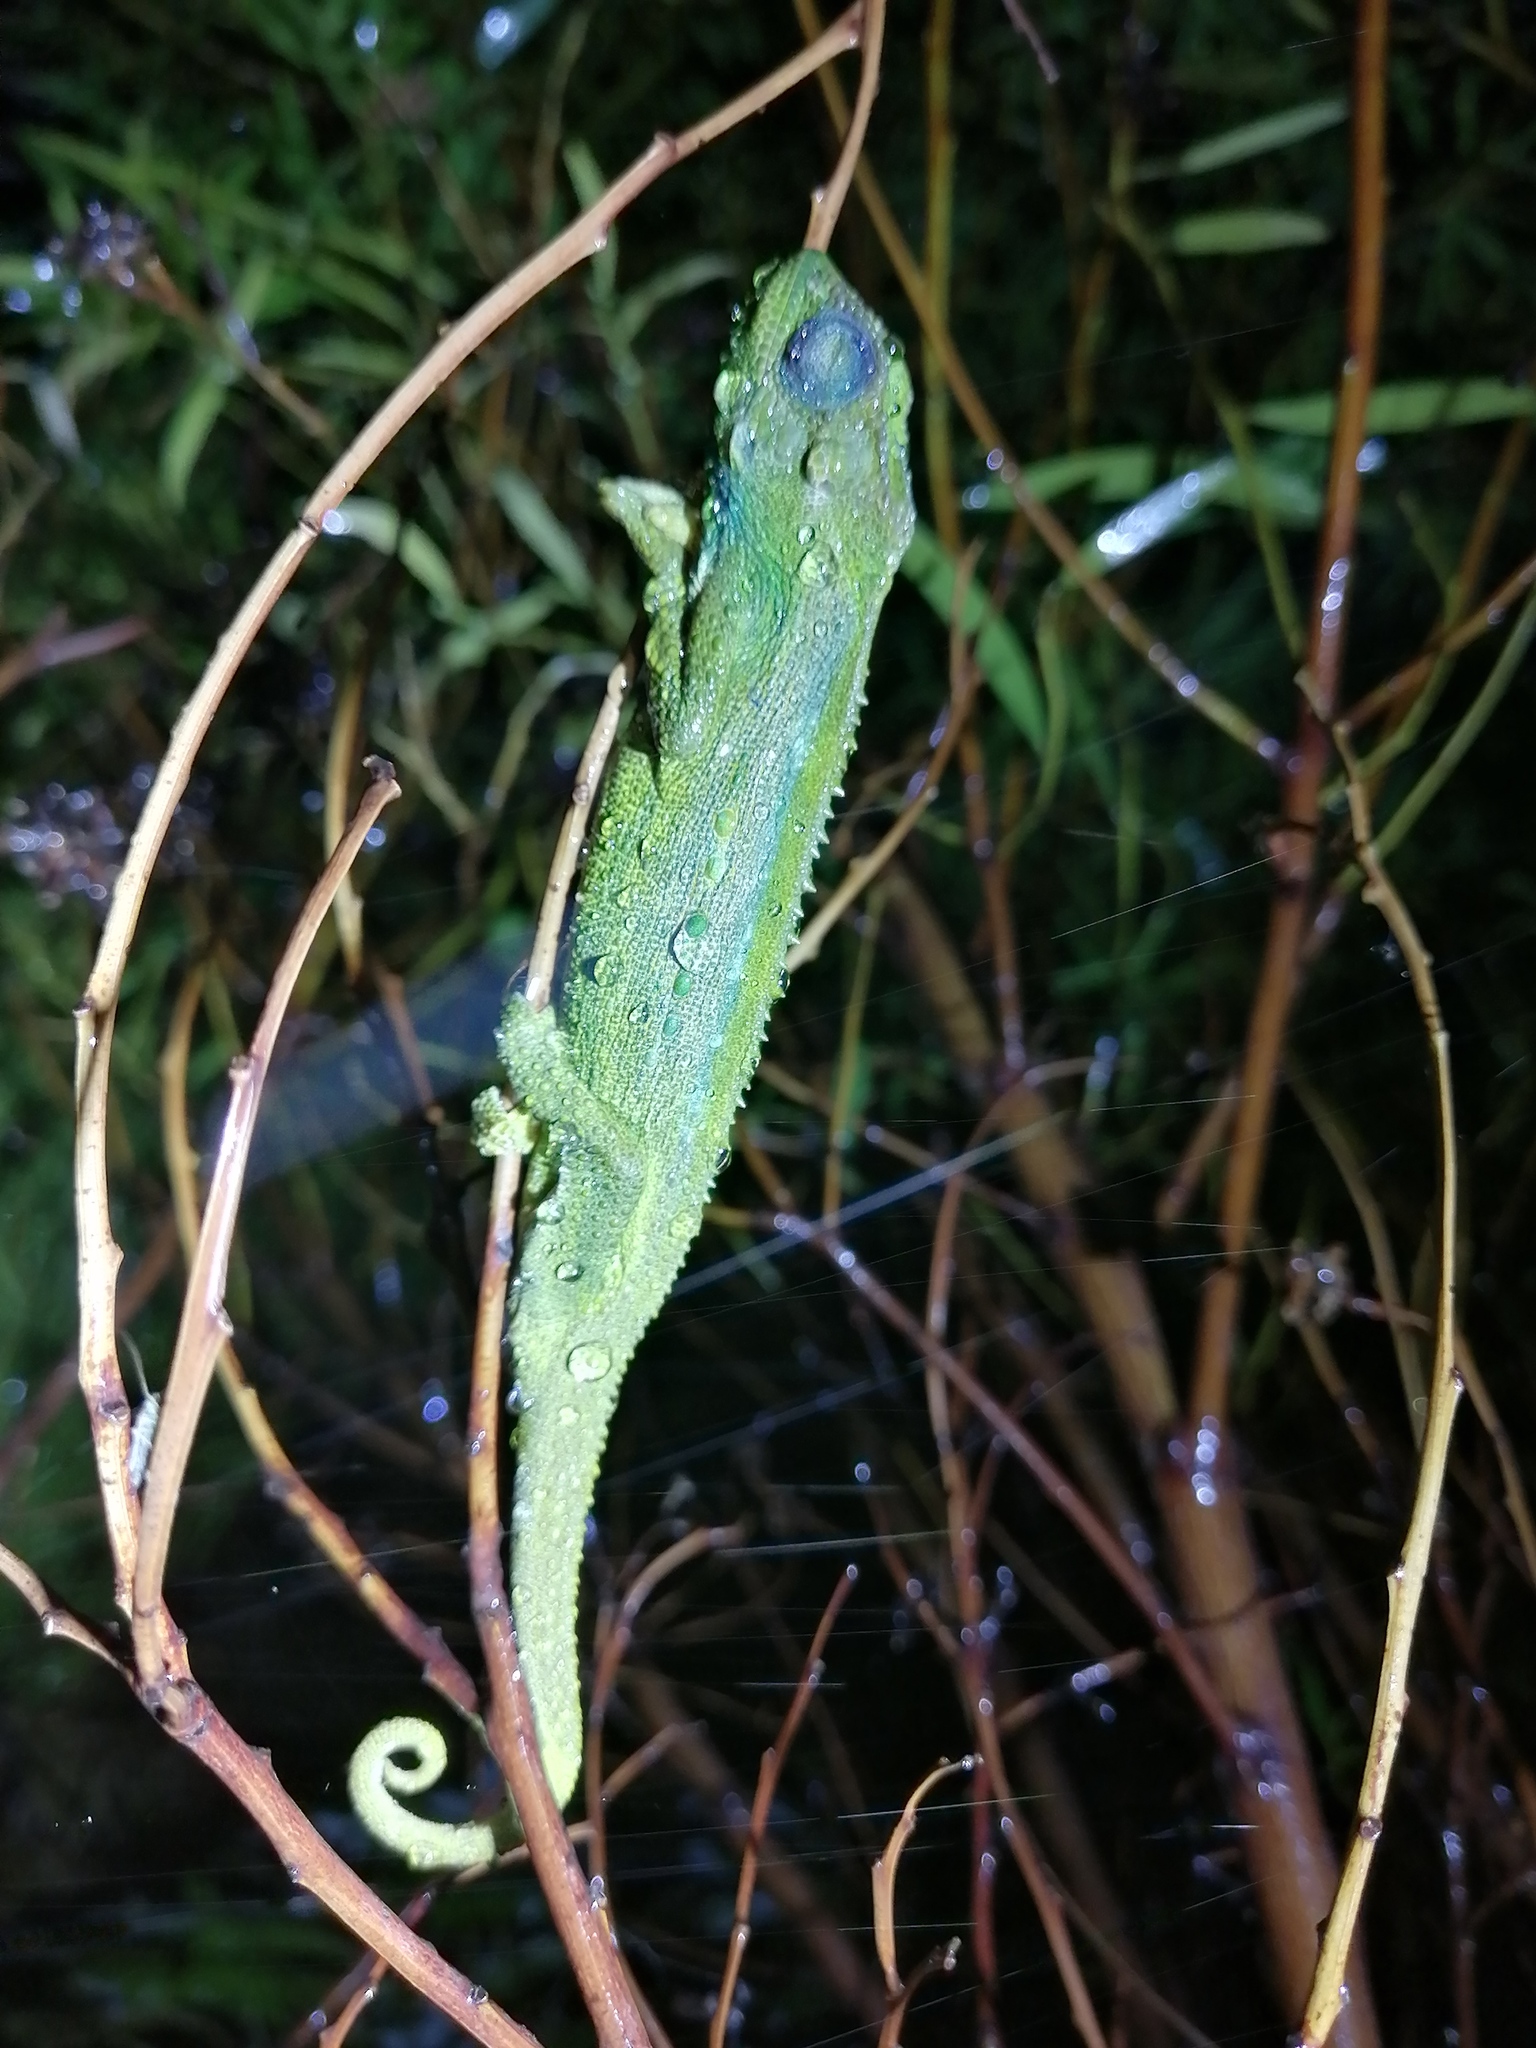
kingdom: Animalia
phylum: Chordata
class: Squamata
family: Chamaeleonidae
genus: Bradypodion
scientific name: Bradypodion pumilum
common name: Cape dwarf chameleon
